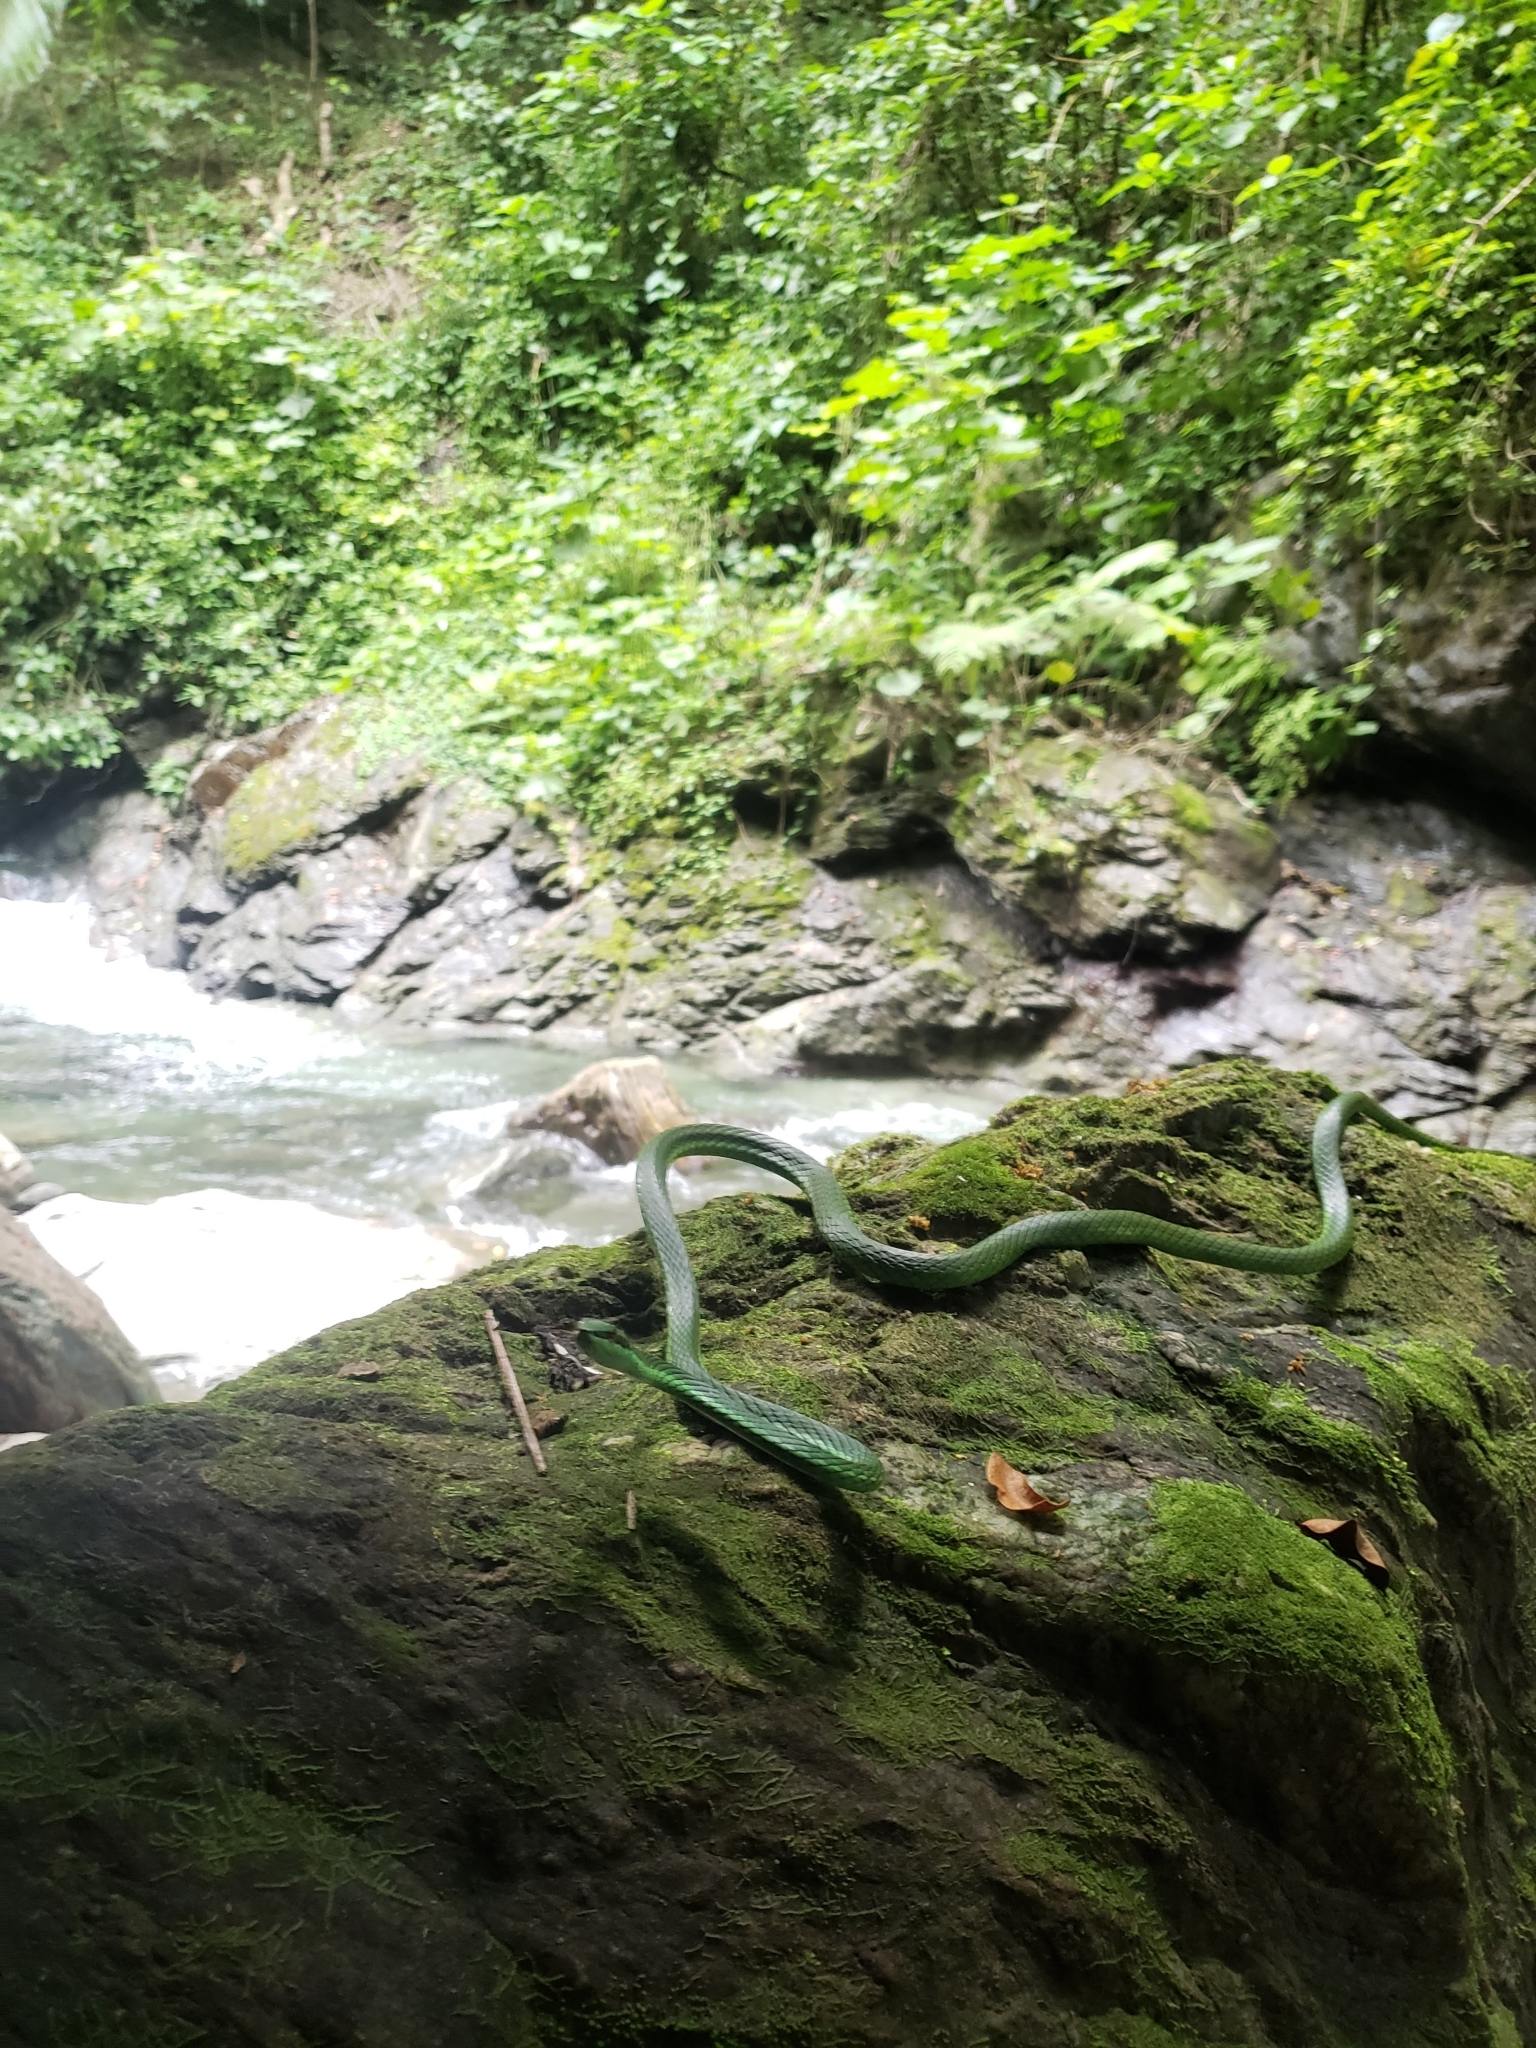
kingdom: Animalia
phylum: Chordata
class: Squamata
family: Colubridae
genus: Uromacer
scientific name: Uromacer catesbyi
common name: Catesby's pointed snake
